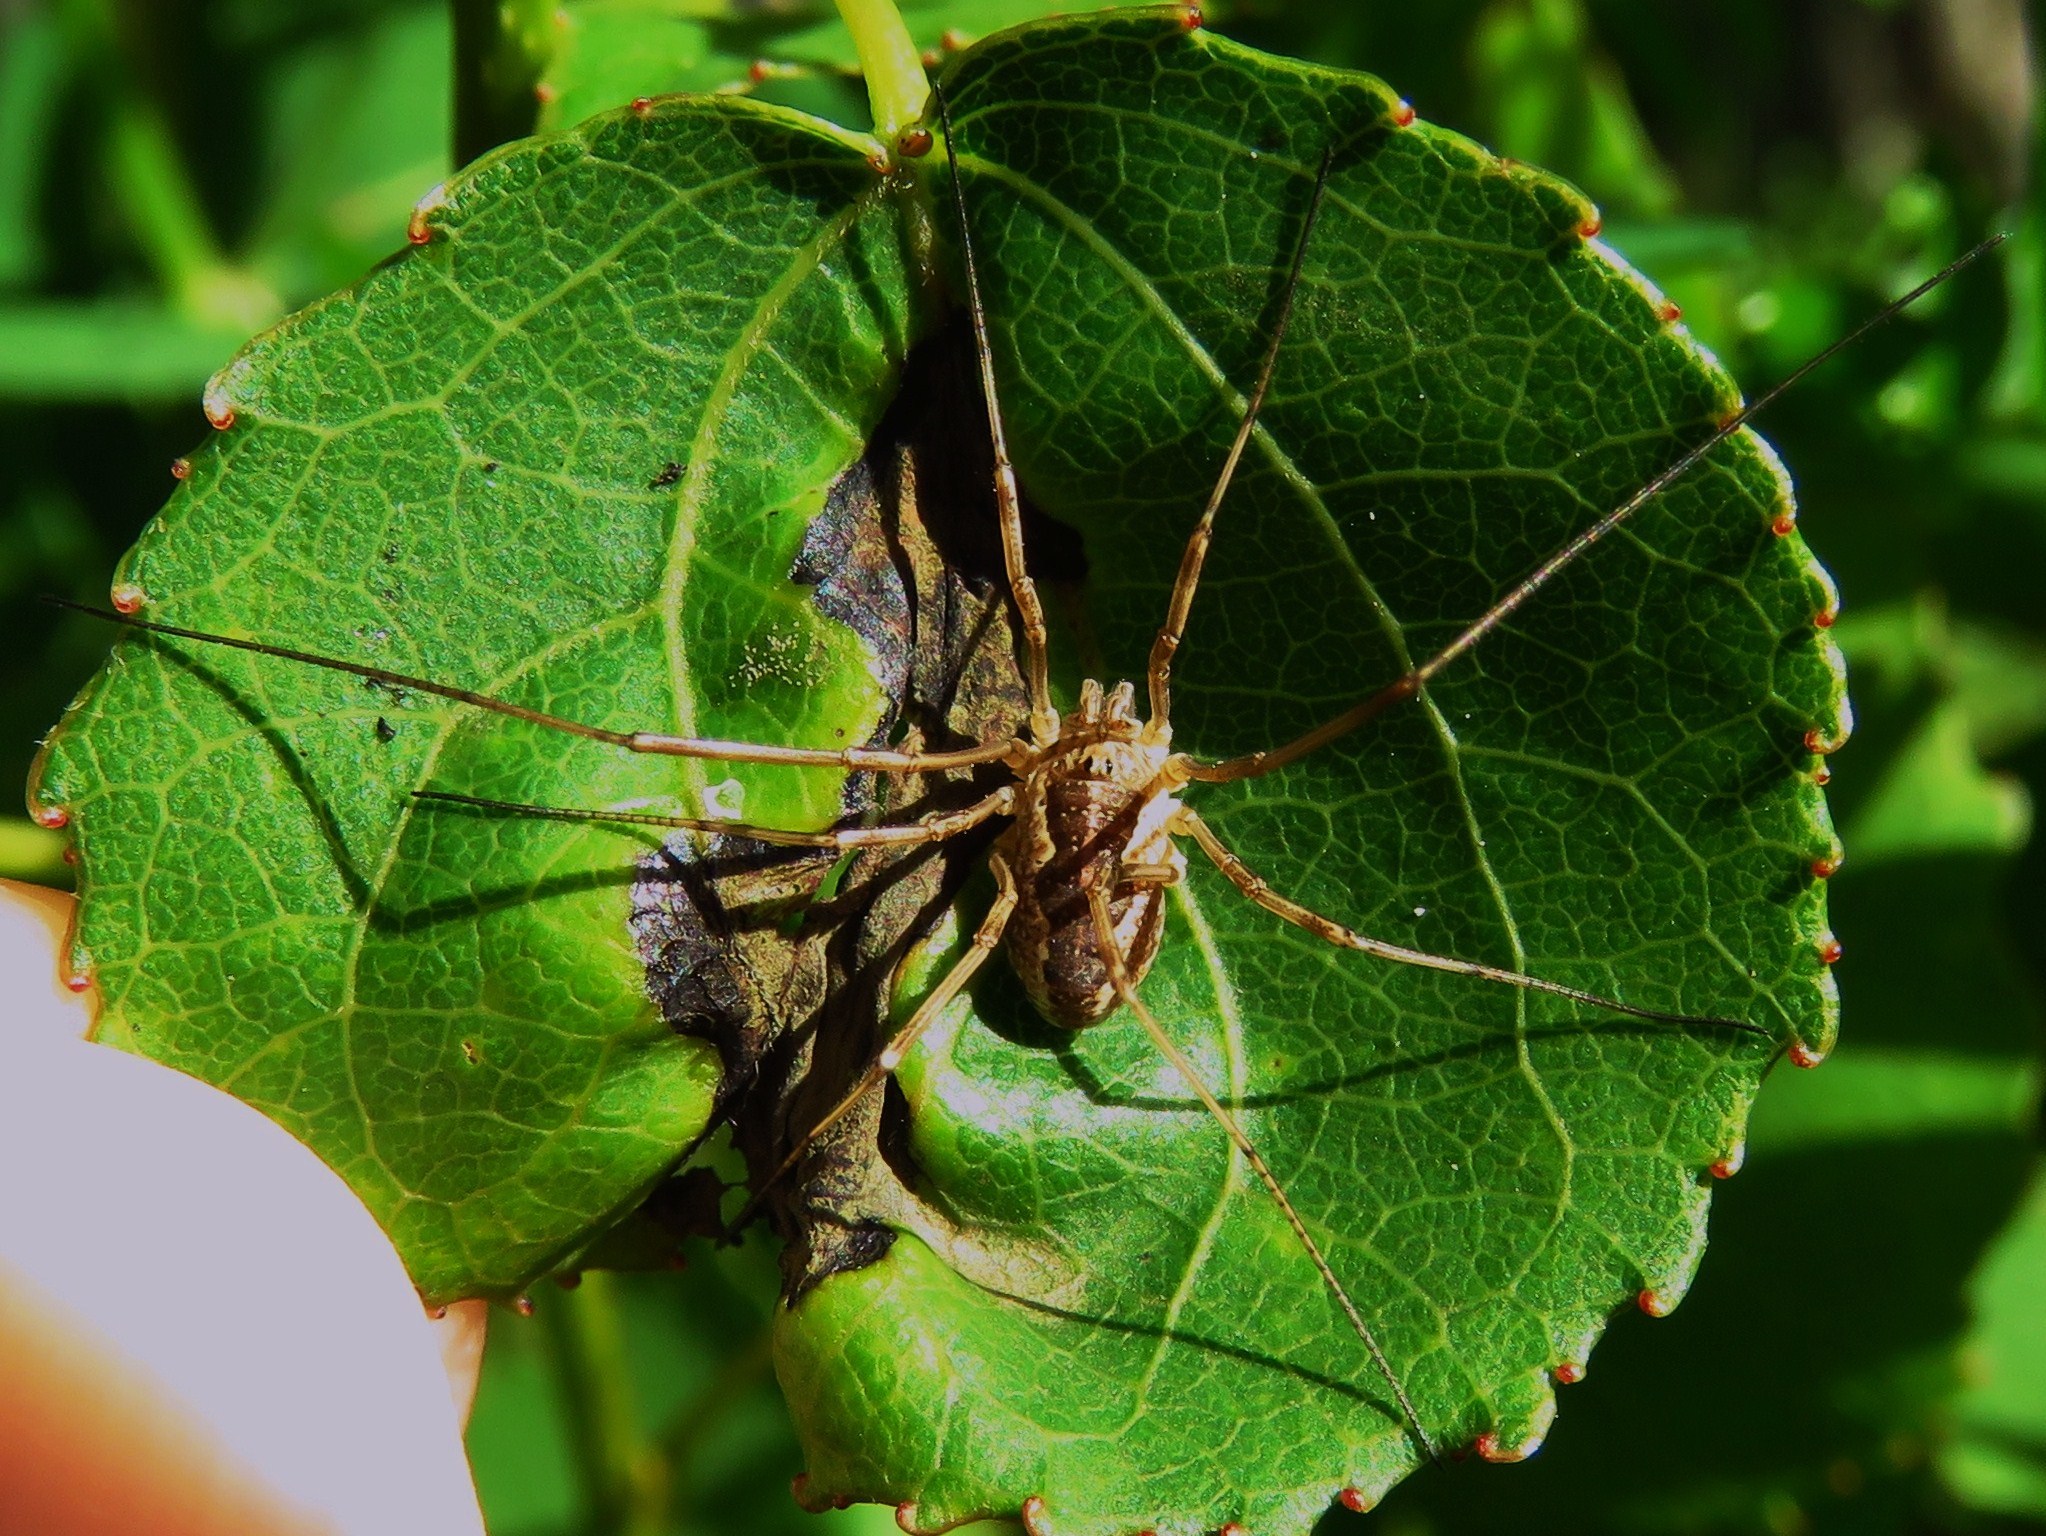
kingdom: Animalia
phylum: Arthropoda
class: Arachnida
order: Opiliones
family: Phalangiidae
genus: Mitopus
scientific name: Mitopus morio
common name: Saddleback harvestman
